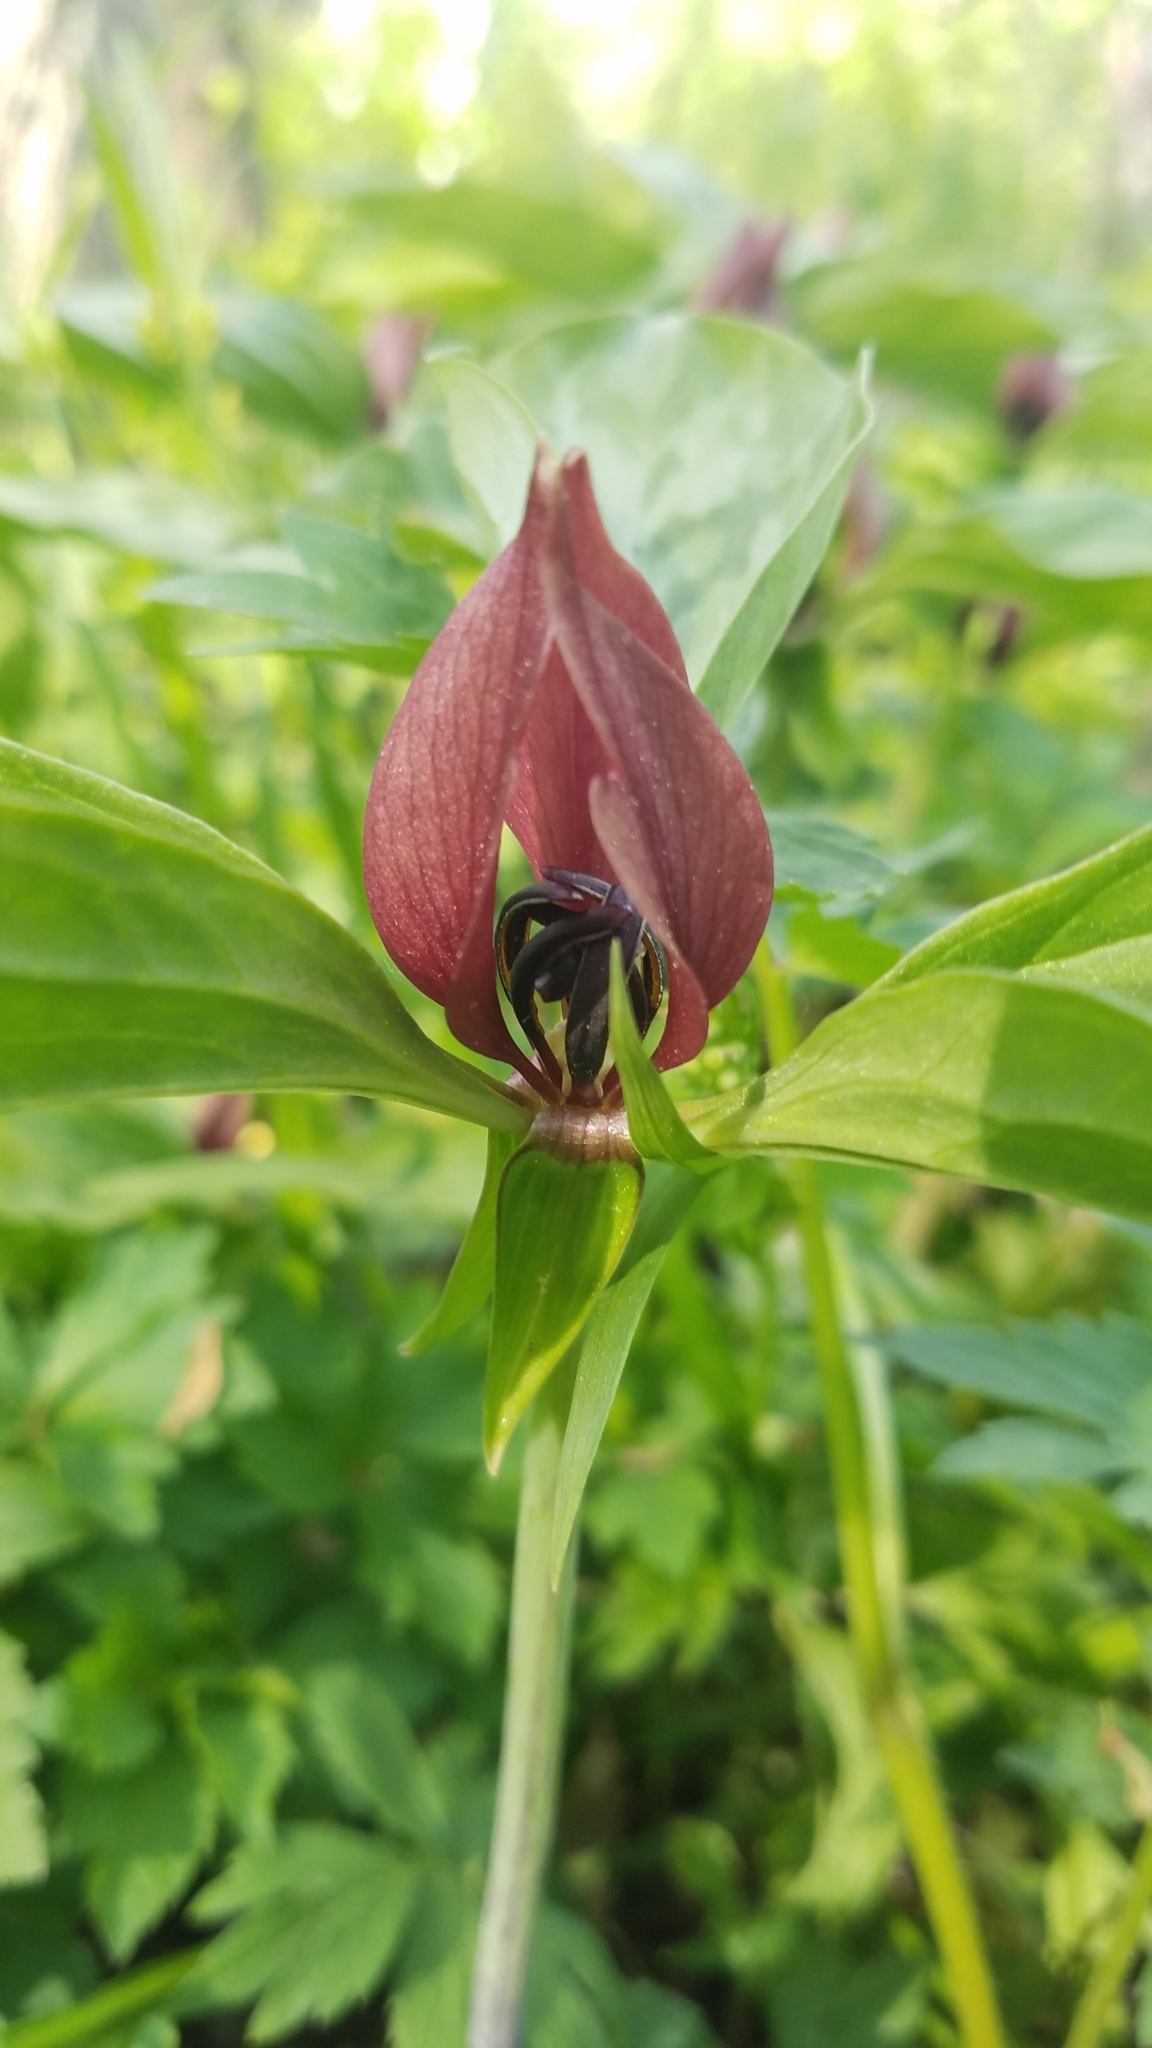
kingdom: Plantae
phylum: Tracheophyta
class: Liliopsida
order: Liliales
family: Melanthiaceae
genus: Trillium
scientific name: Trillium recurvatum
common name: Bloody butcher
